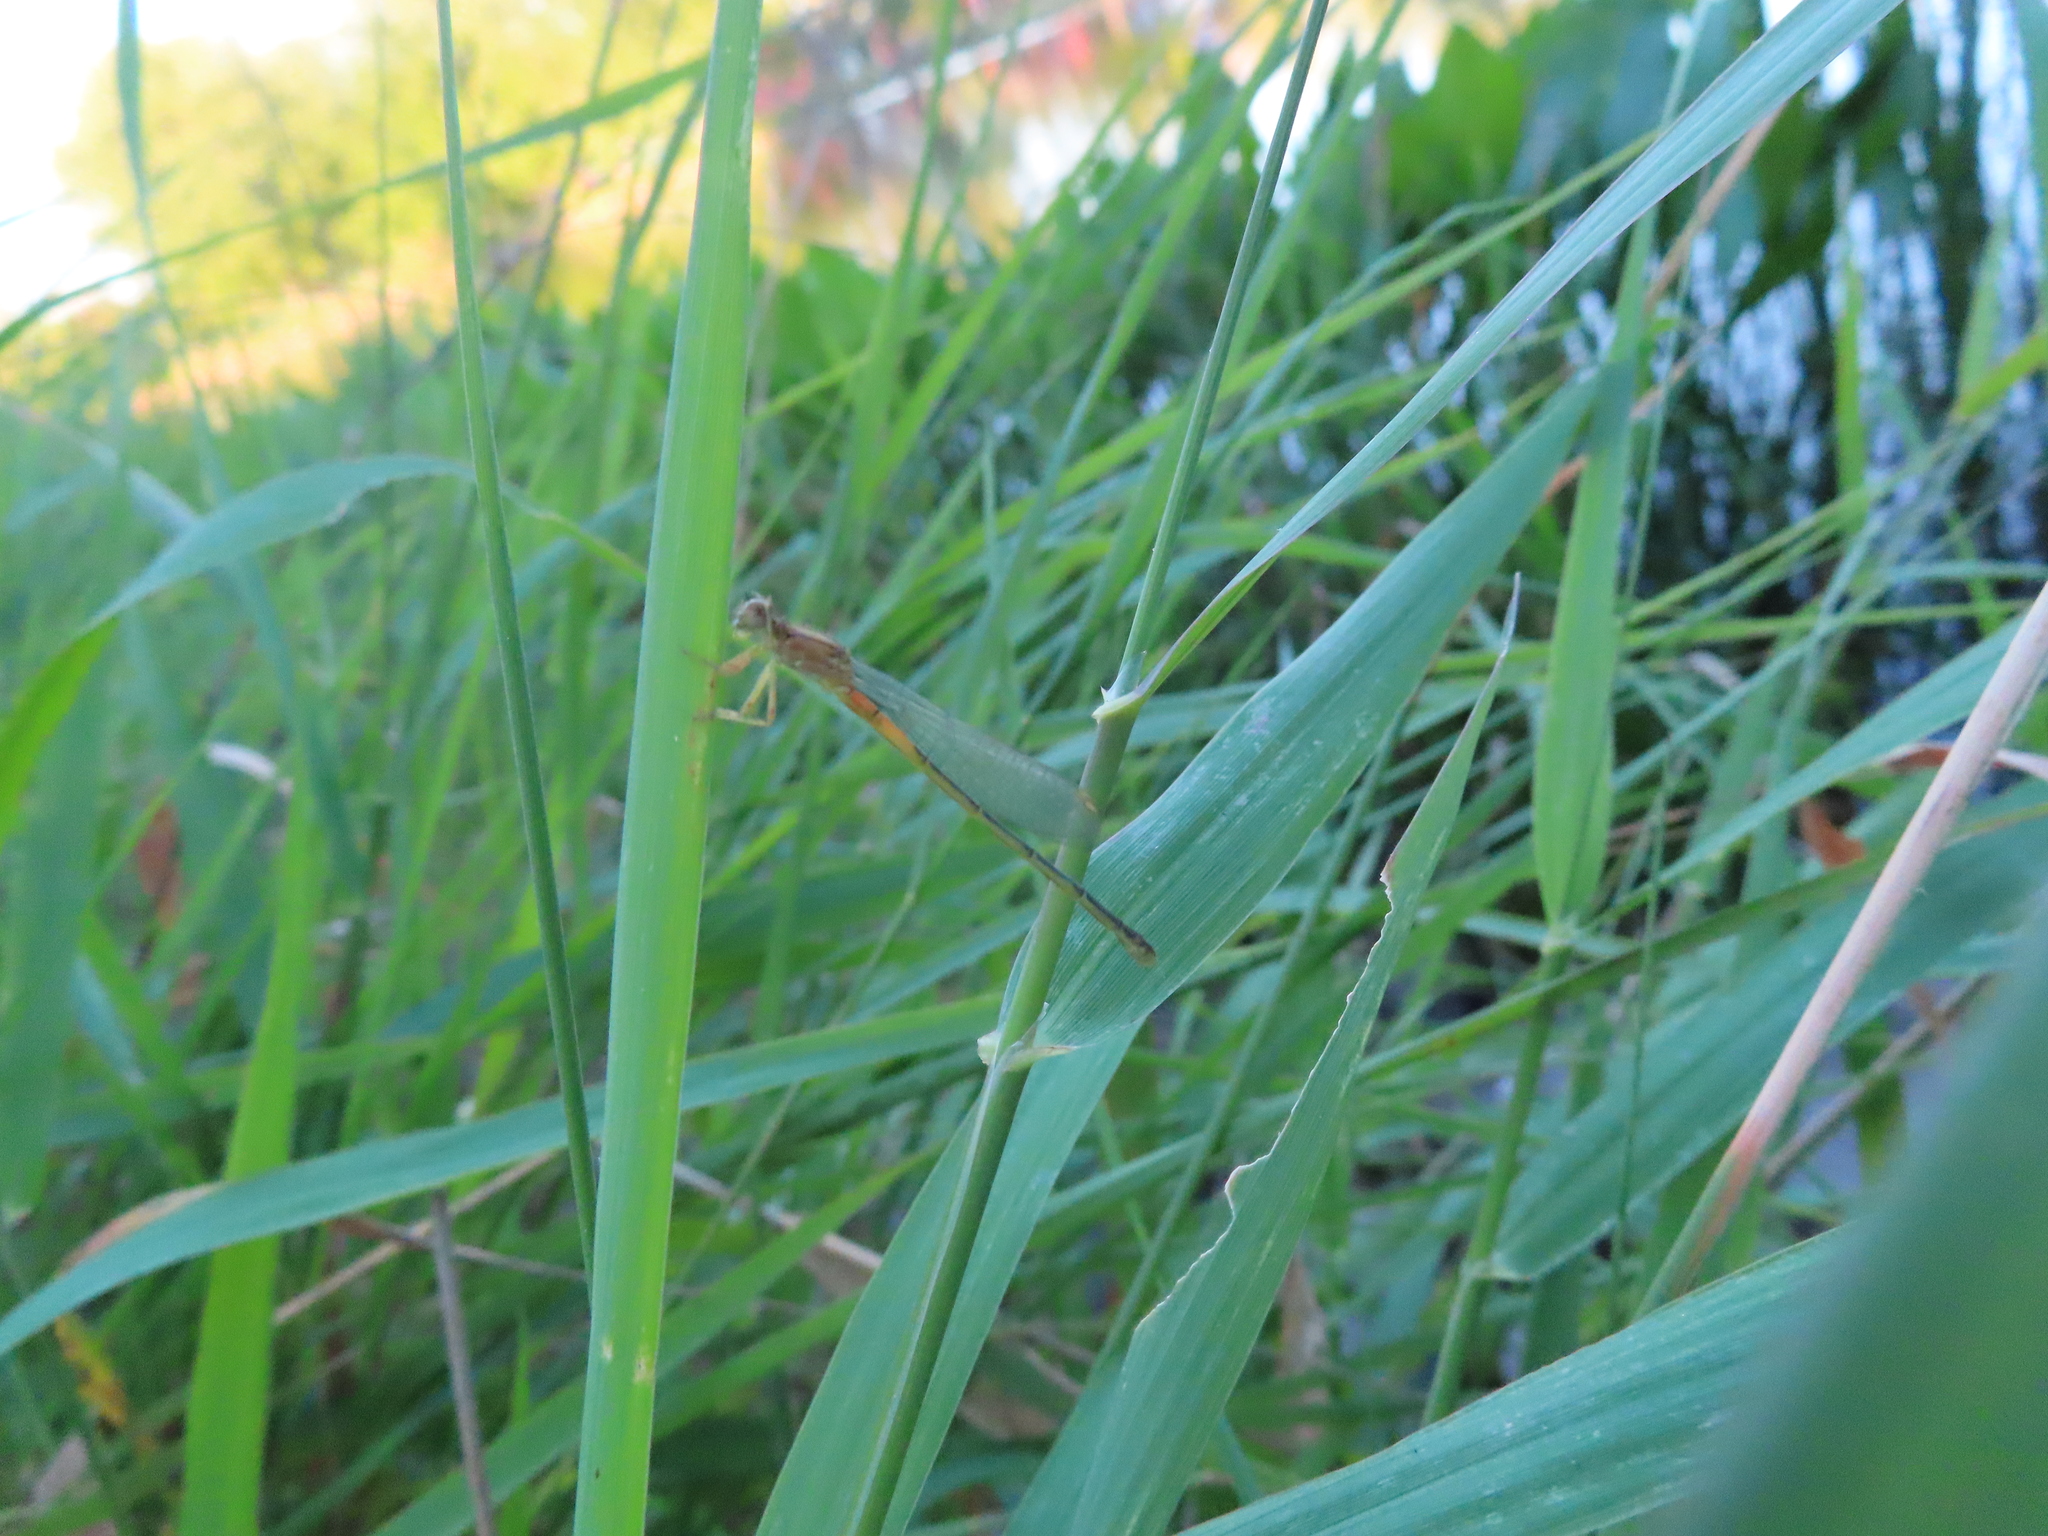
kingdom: Animalia
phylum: Arthropoda
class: Insecta
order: Odonata
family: Coenagrionidae
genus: Ischnura
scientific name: Ischnura verticalis
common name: Eastern forktail
